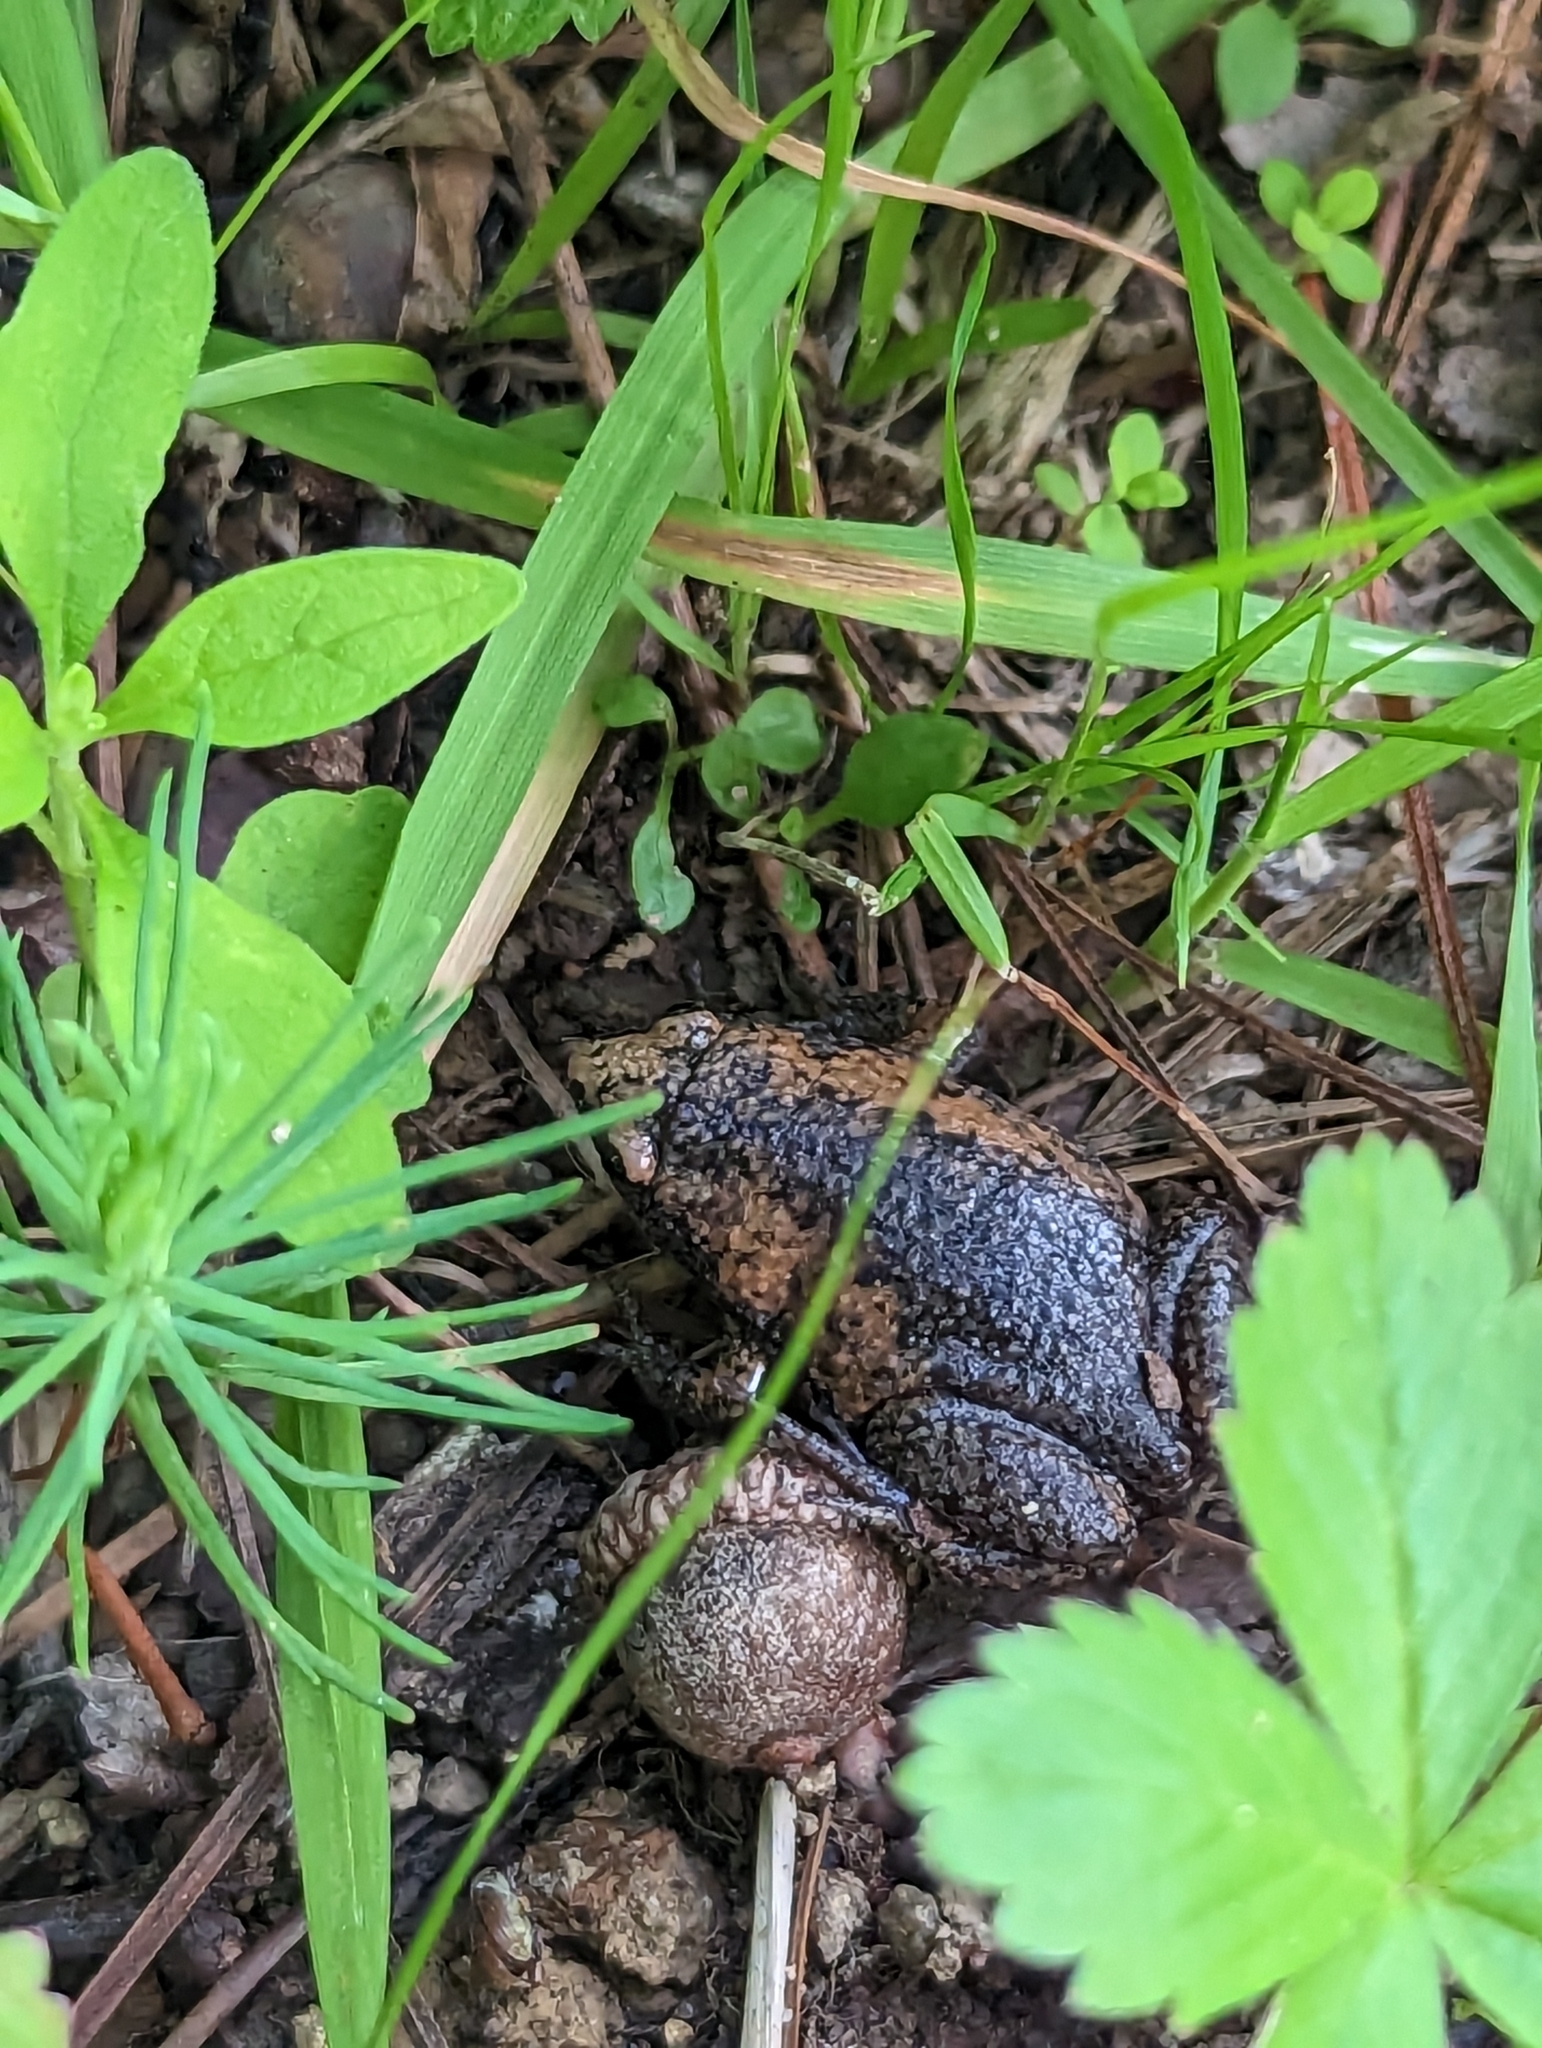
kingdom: Animalia
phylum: Chordata
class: Amphibia
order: Anura
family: Microhylidae
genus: Gastrophryne
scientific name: Gastrophryne carolinensis
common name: Eastern narrowmouth toad
